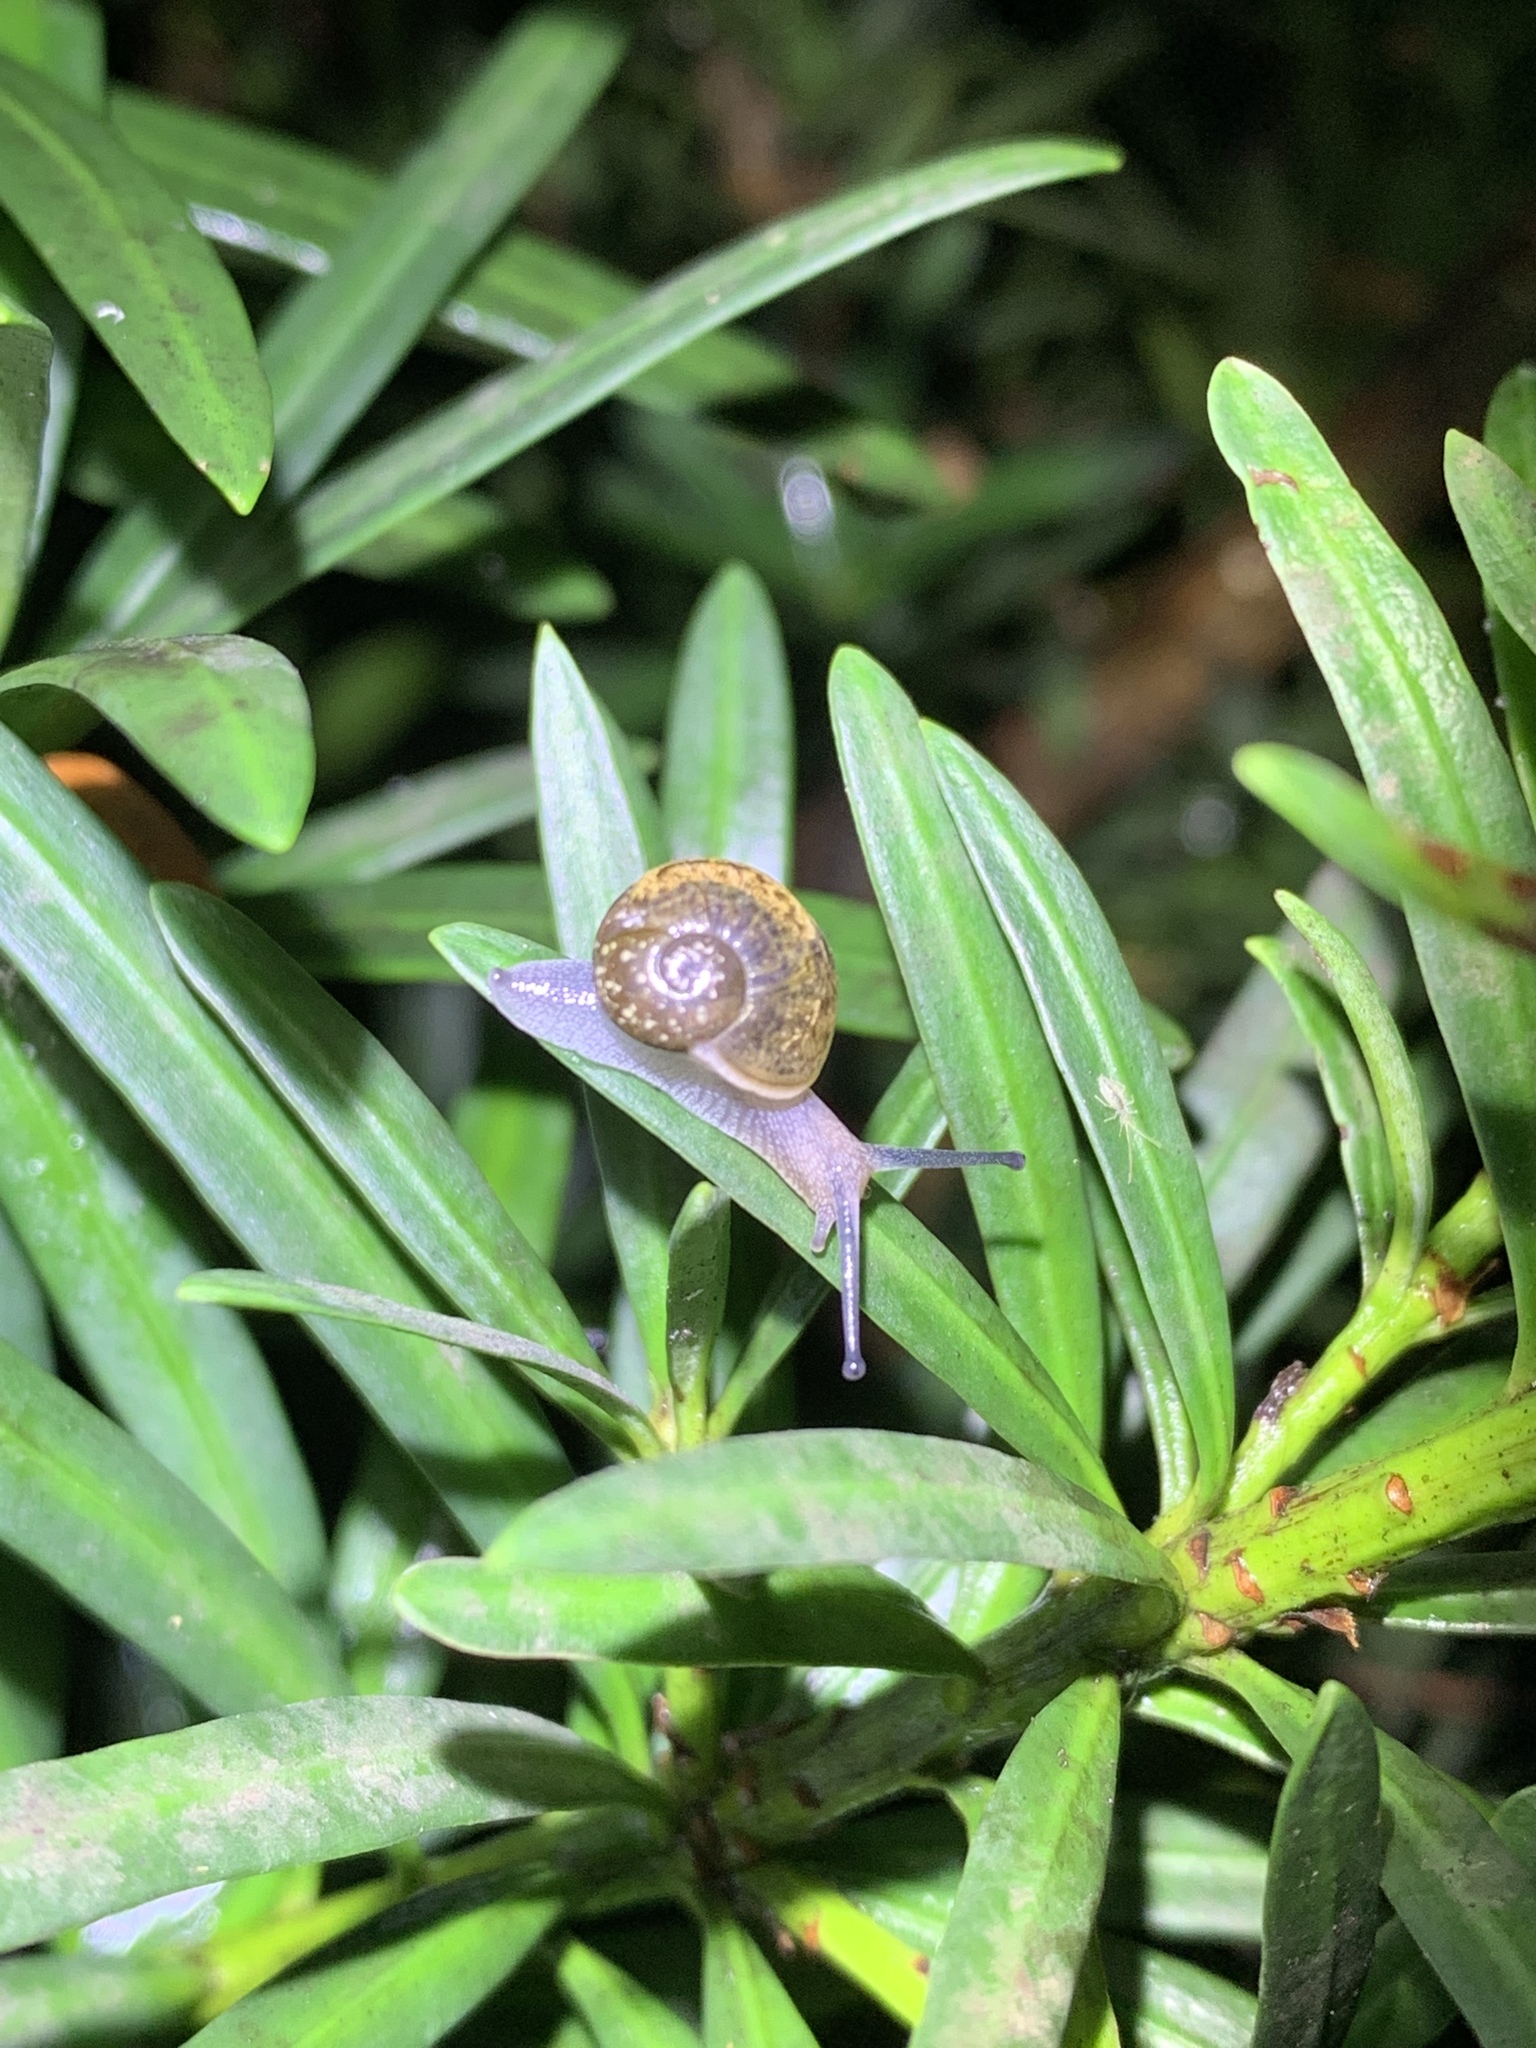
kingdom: Animalia
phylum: Mollusca
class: Gastropoda
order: Stylommatophora
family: Zachrysiidae
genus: Zachrysia
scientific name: Zachrysia provisoria
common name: Garden zachrysia
